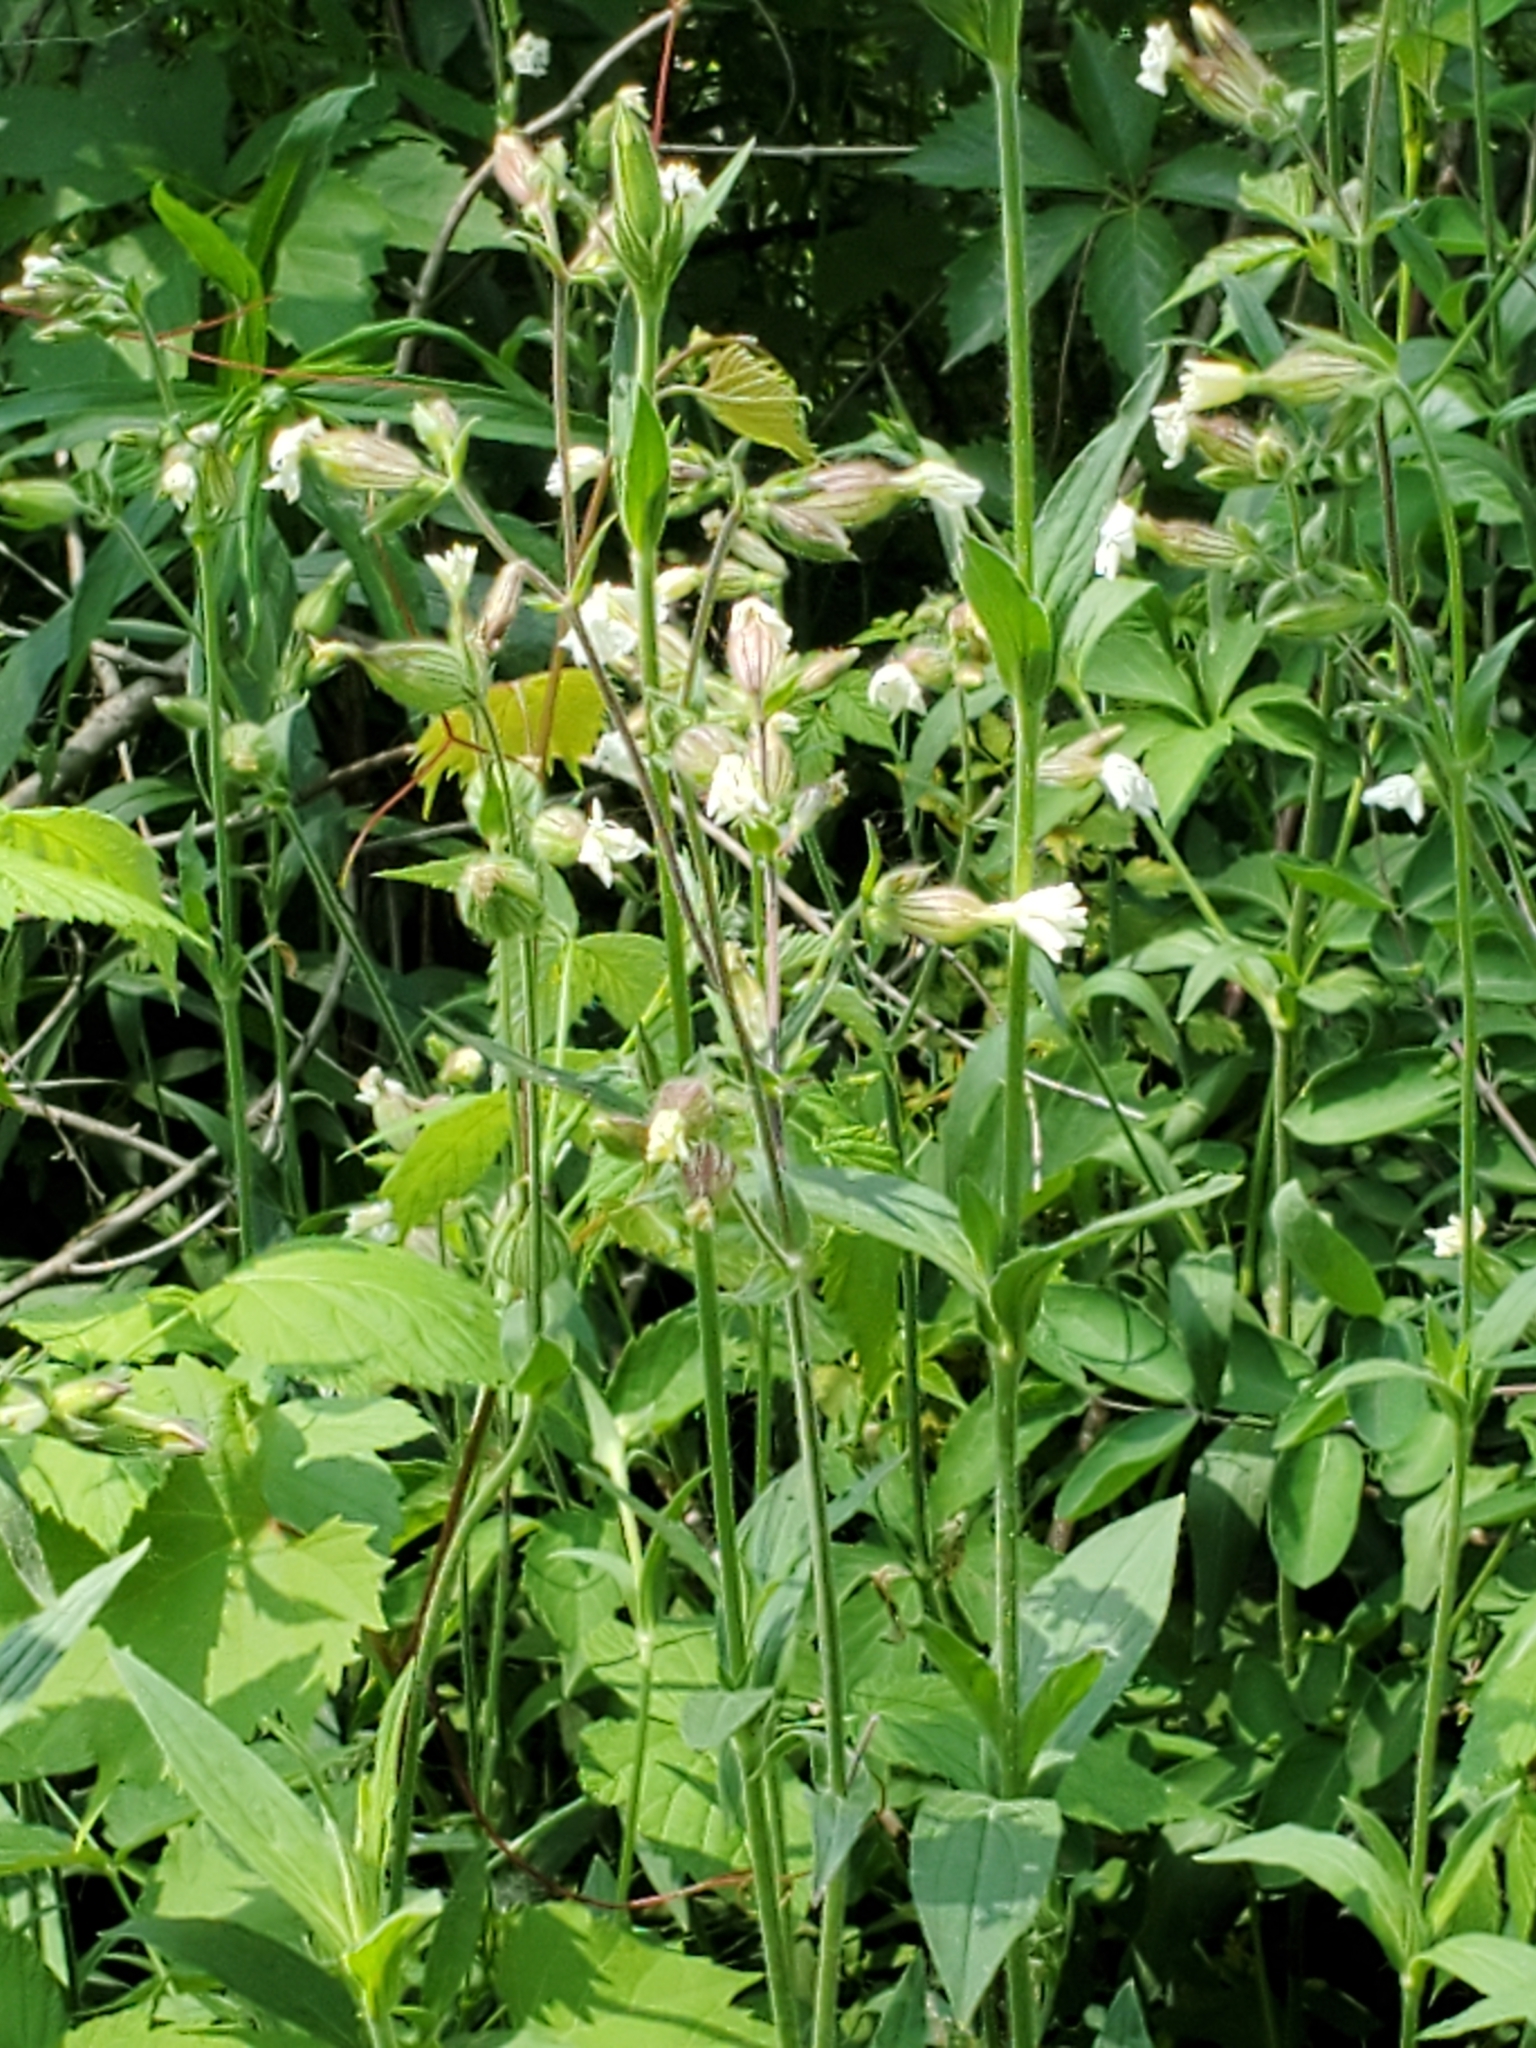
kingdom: Plantae
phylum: Tracheophyta
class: Magnoliopsida
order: Caryophyllales
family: Caryophyllaceae
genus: Silene
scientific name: Silene latifolia
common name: White campion
